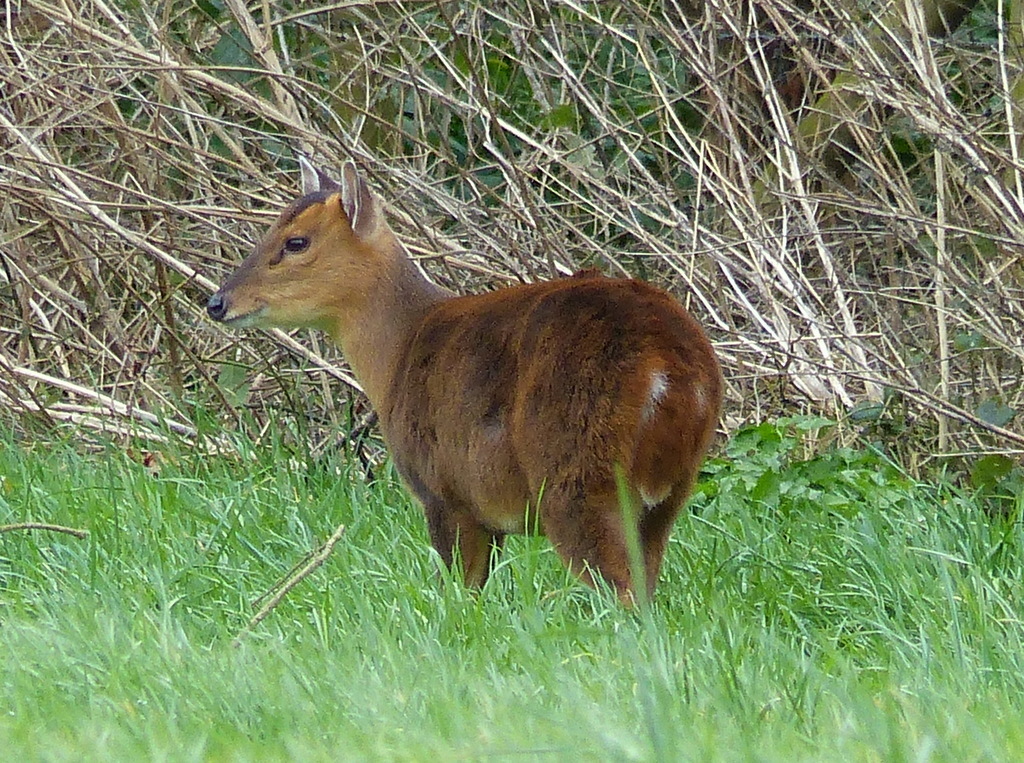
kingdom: Animalia
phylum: Chordata
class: Mammalia
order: Artiodactyla
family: Cervidae
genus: Muntiacus
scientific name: Muntiacus reevesi
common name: Reeves' muntjac
